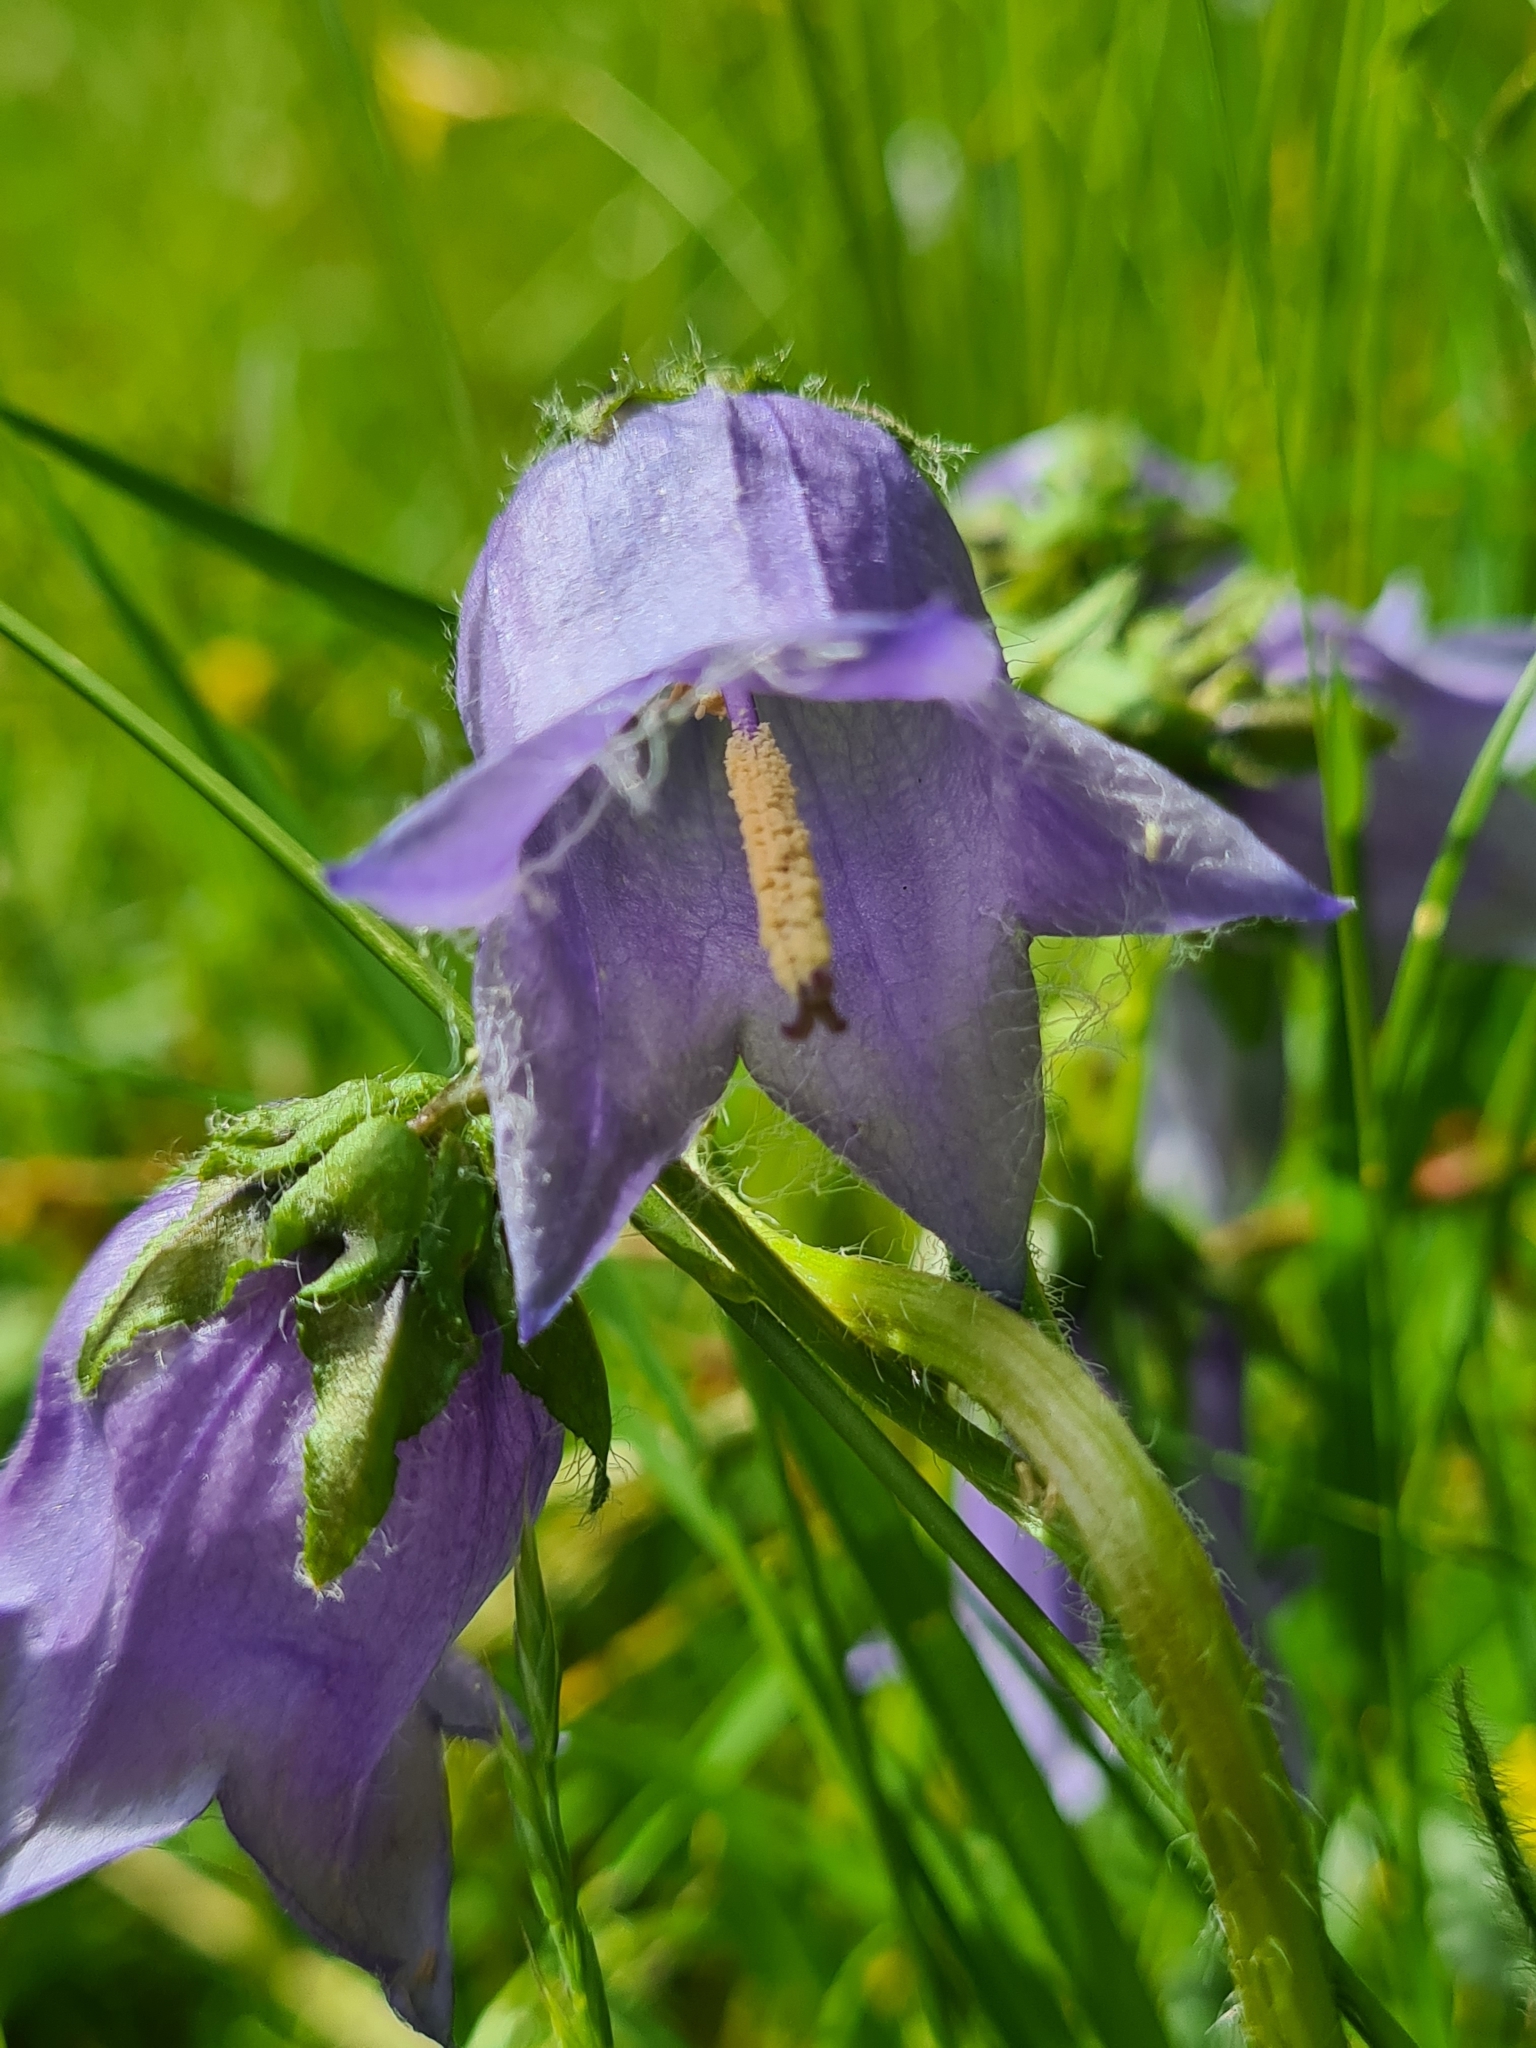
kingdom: Plantae
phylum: Tracheophyta
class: Magnoliopsida
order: Asterales
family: Campanulaceae
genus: Campanula
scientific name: Campanula barbata
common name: Bearded bellflower
